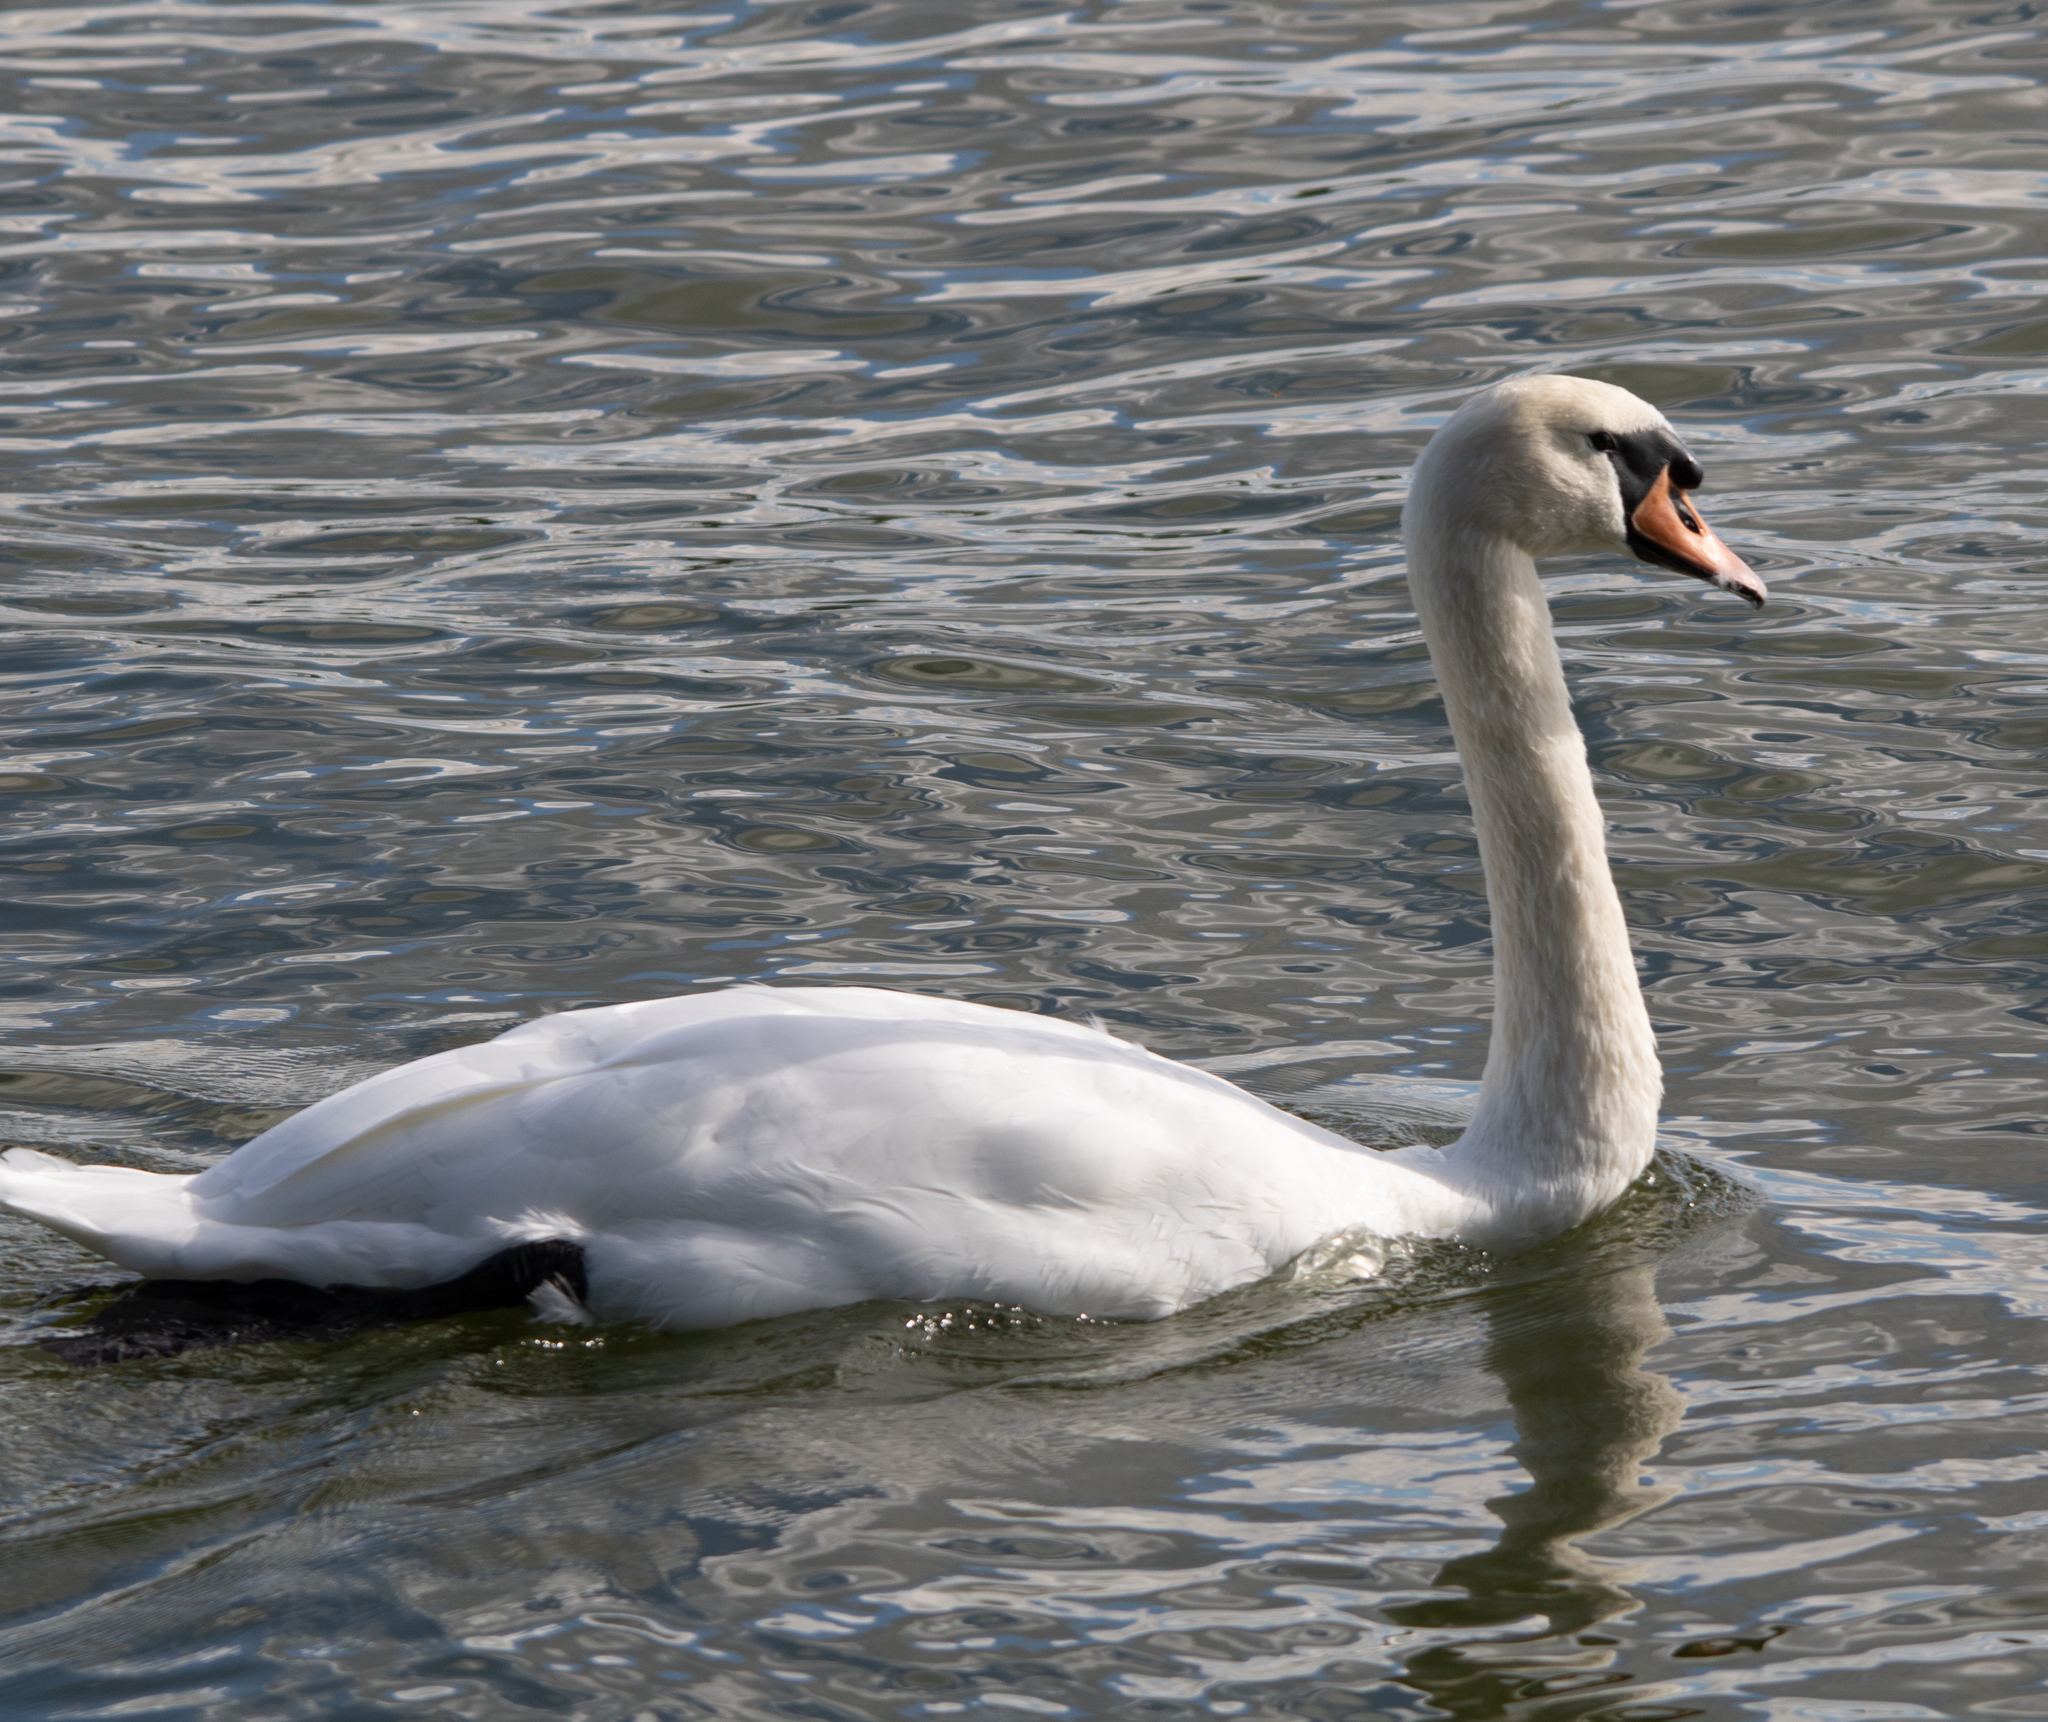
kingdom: Animalia
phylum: Chordata
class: Aves
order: Anseriformes
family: Anatidae
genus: Cygnus
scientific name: Cygnus olor
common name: Mute swan
